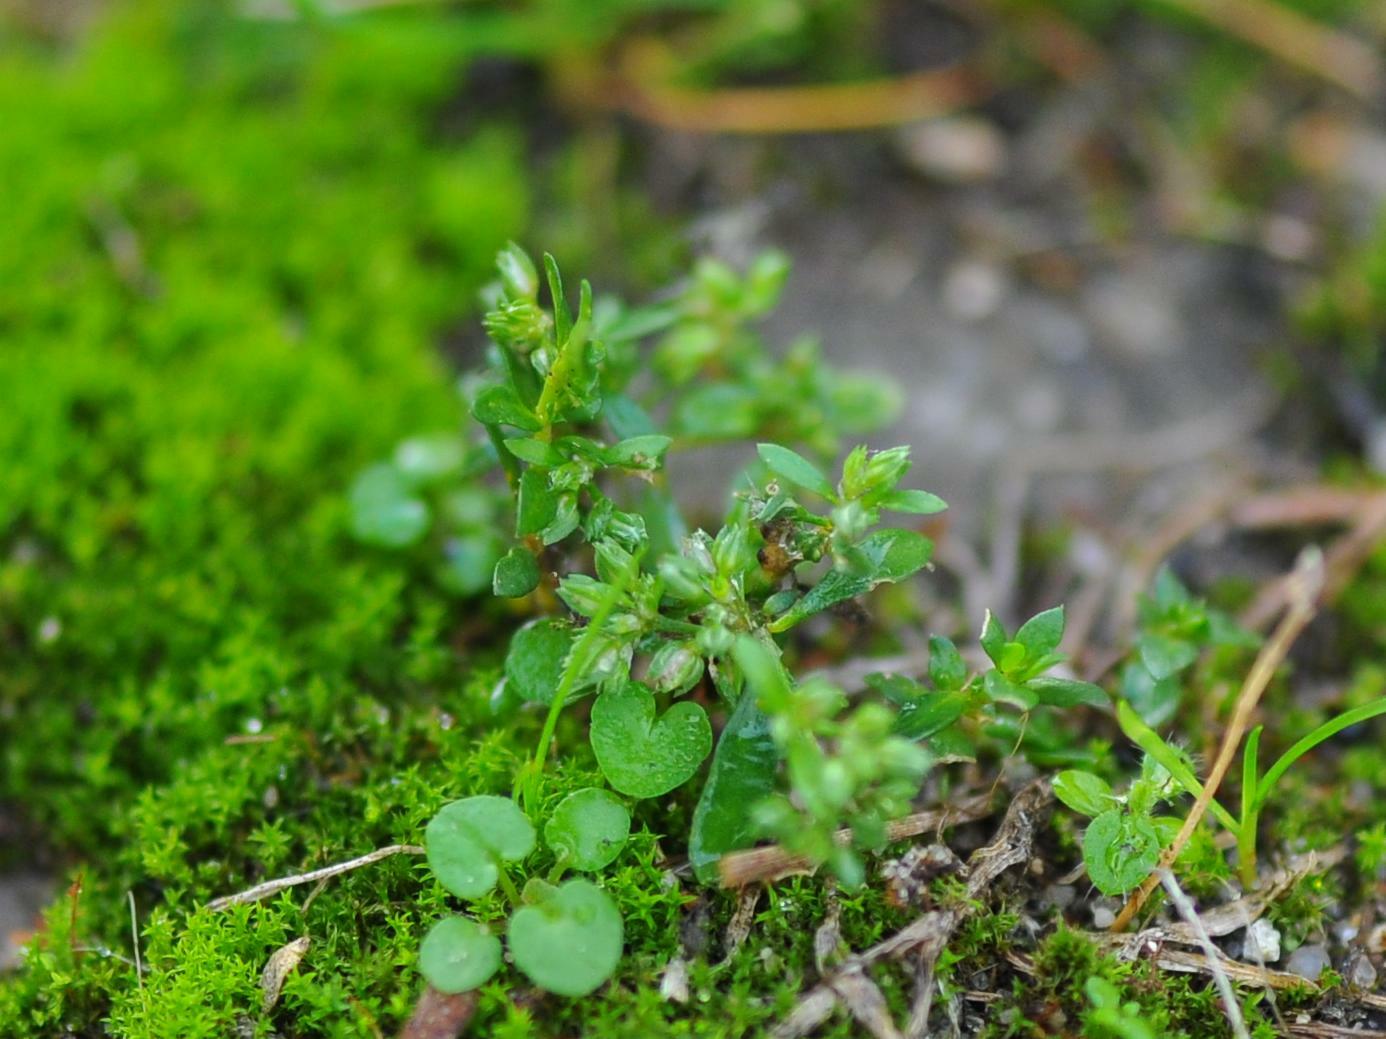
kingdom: Plantae
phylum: Tracheophyta
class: Magnoliopsida
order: Caryophyllales
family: Caryophyllaceae
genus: Polycarpon
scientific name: Polycarpon tetraphyllum
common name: Four-leaved all-seed
